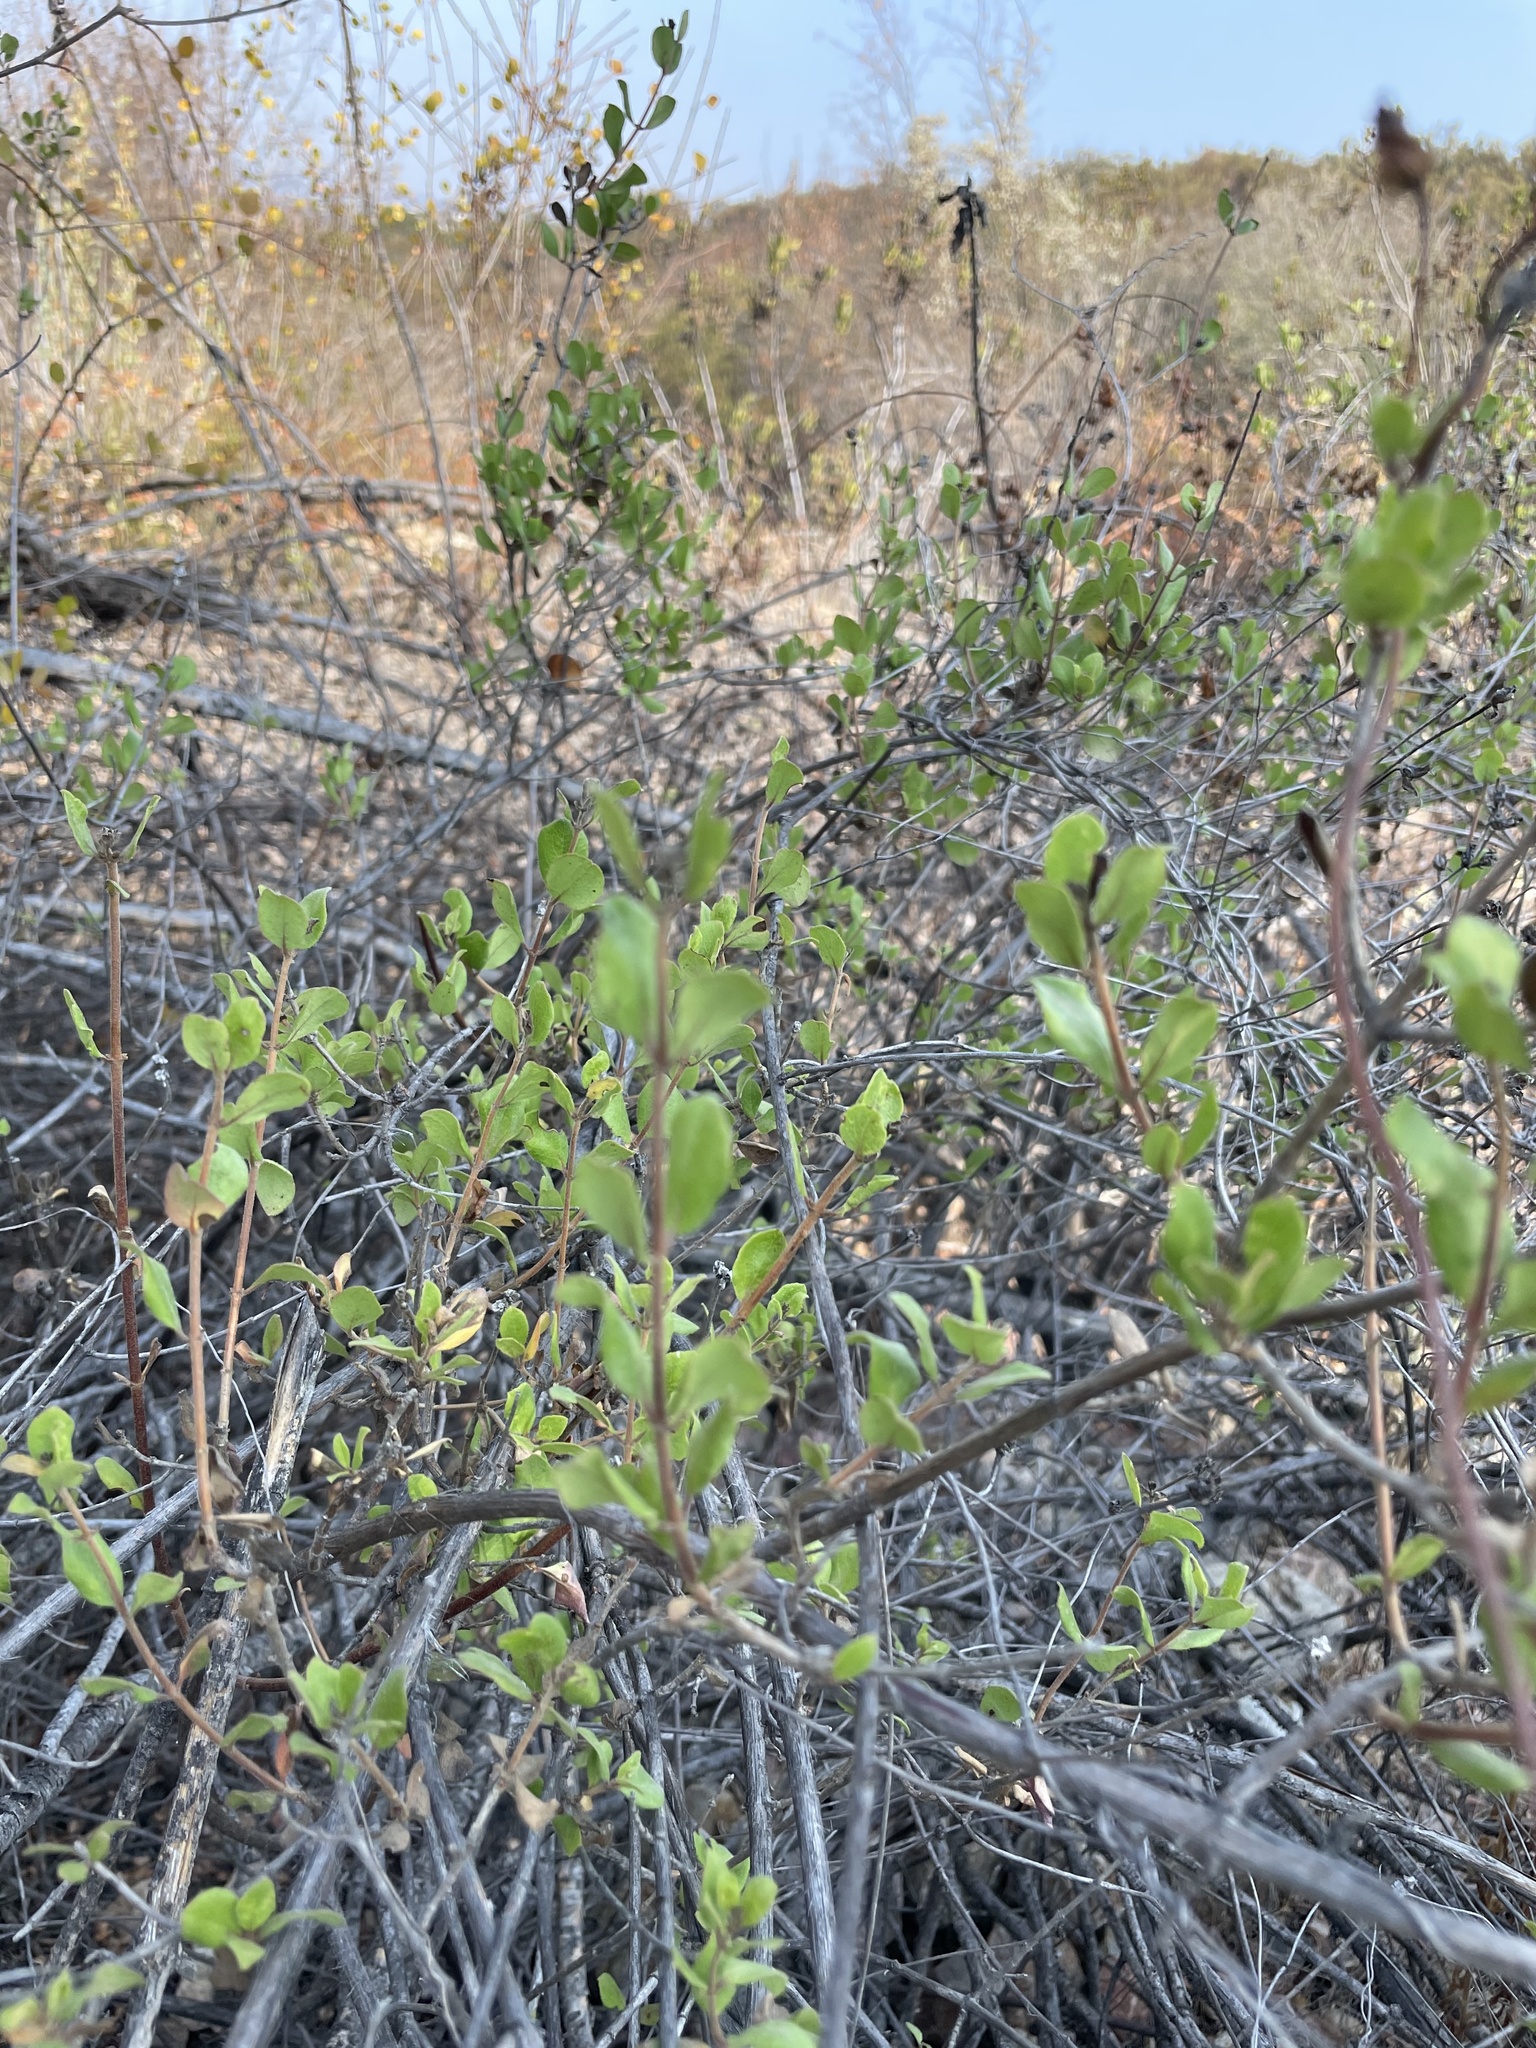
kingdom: Plantae
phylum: Tracheophyta
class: Magnoliopsida
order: Dipsacales
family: Caprifoliaceae
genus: Lonicera
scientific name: Lonicera subspicata
